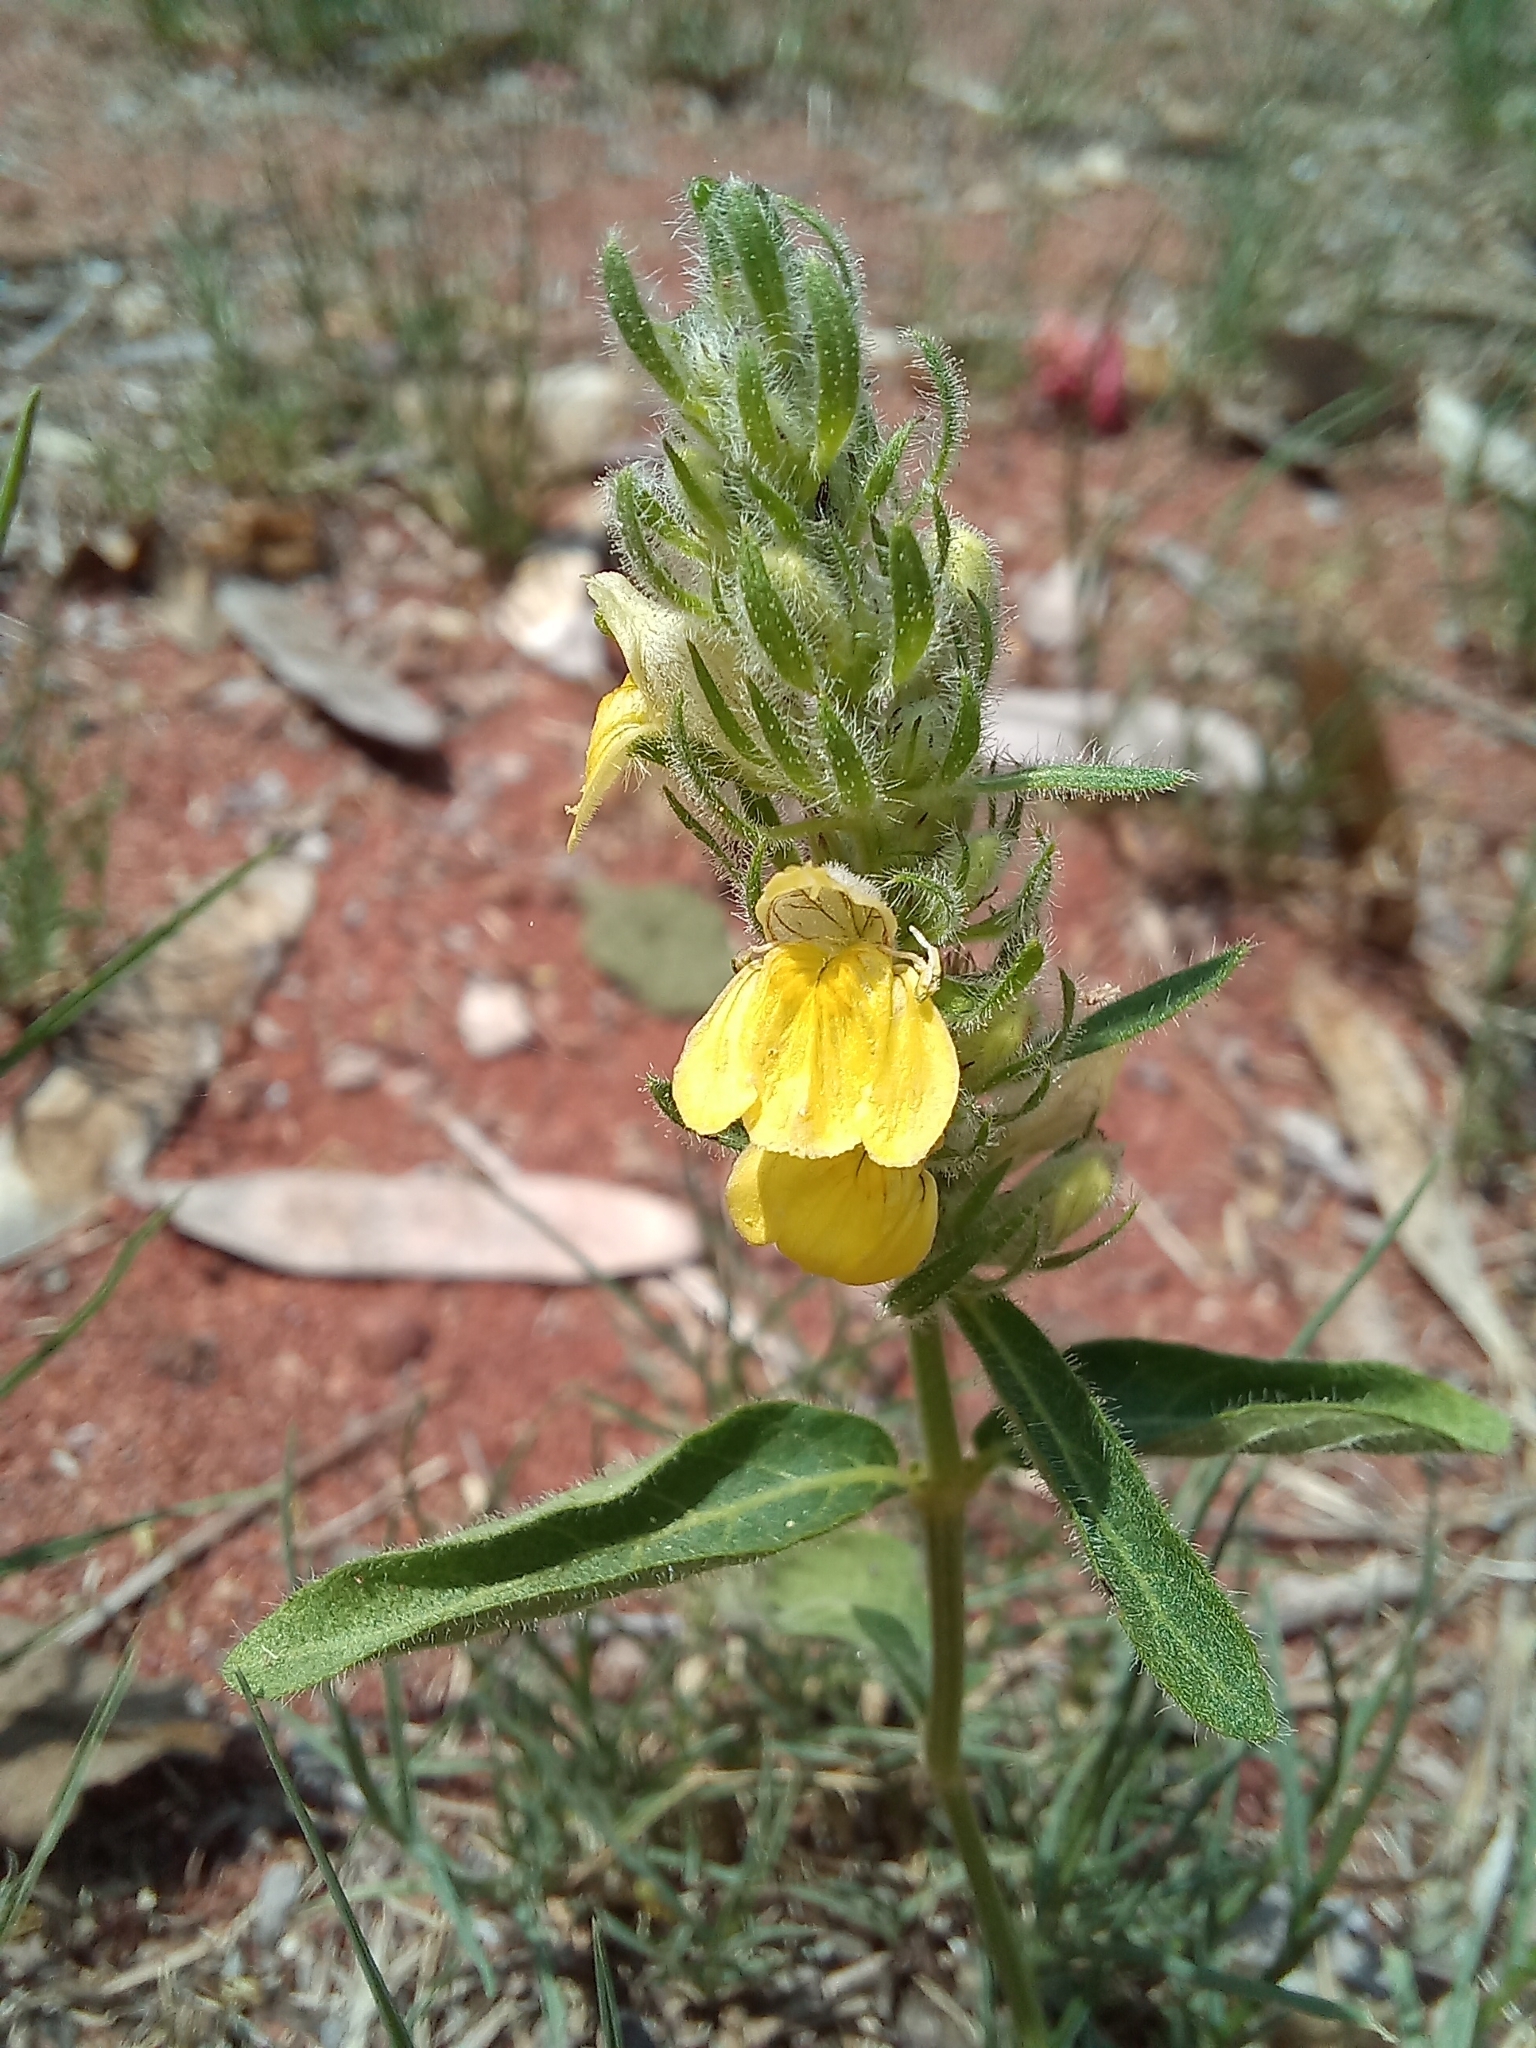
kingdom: Plantae
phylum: Tracheophyta
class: Magnoliopsida
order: Lamiales
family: Acanthaceae
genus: Justicia
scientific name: Justicia flava
